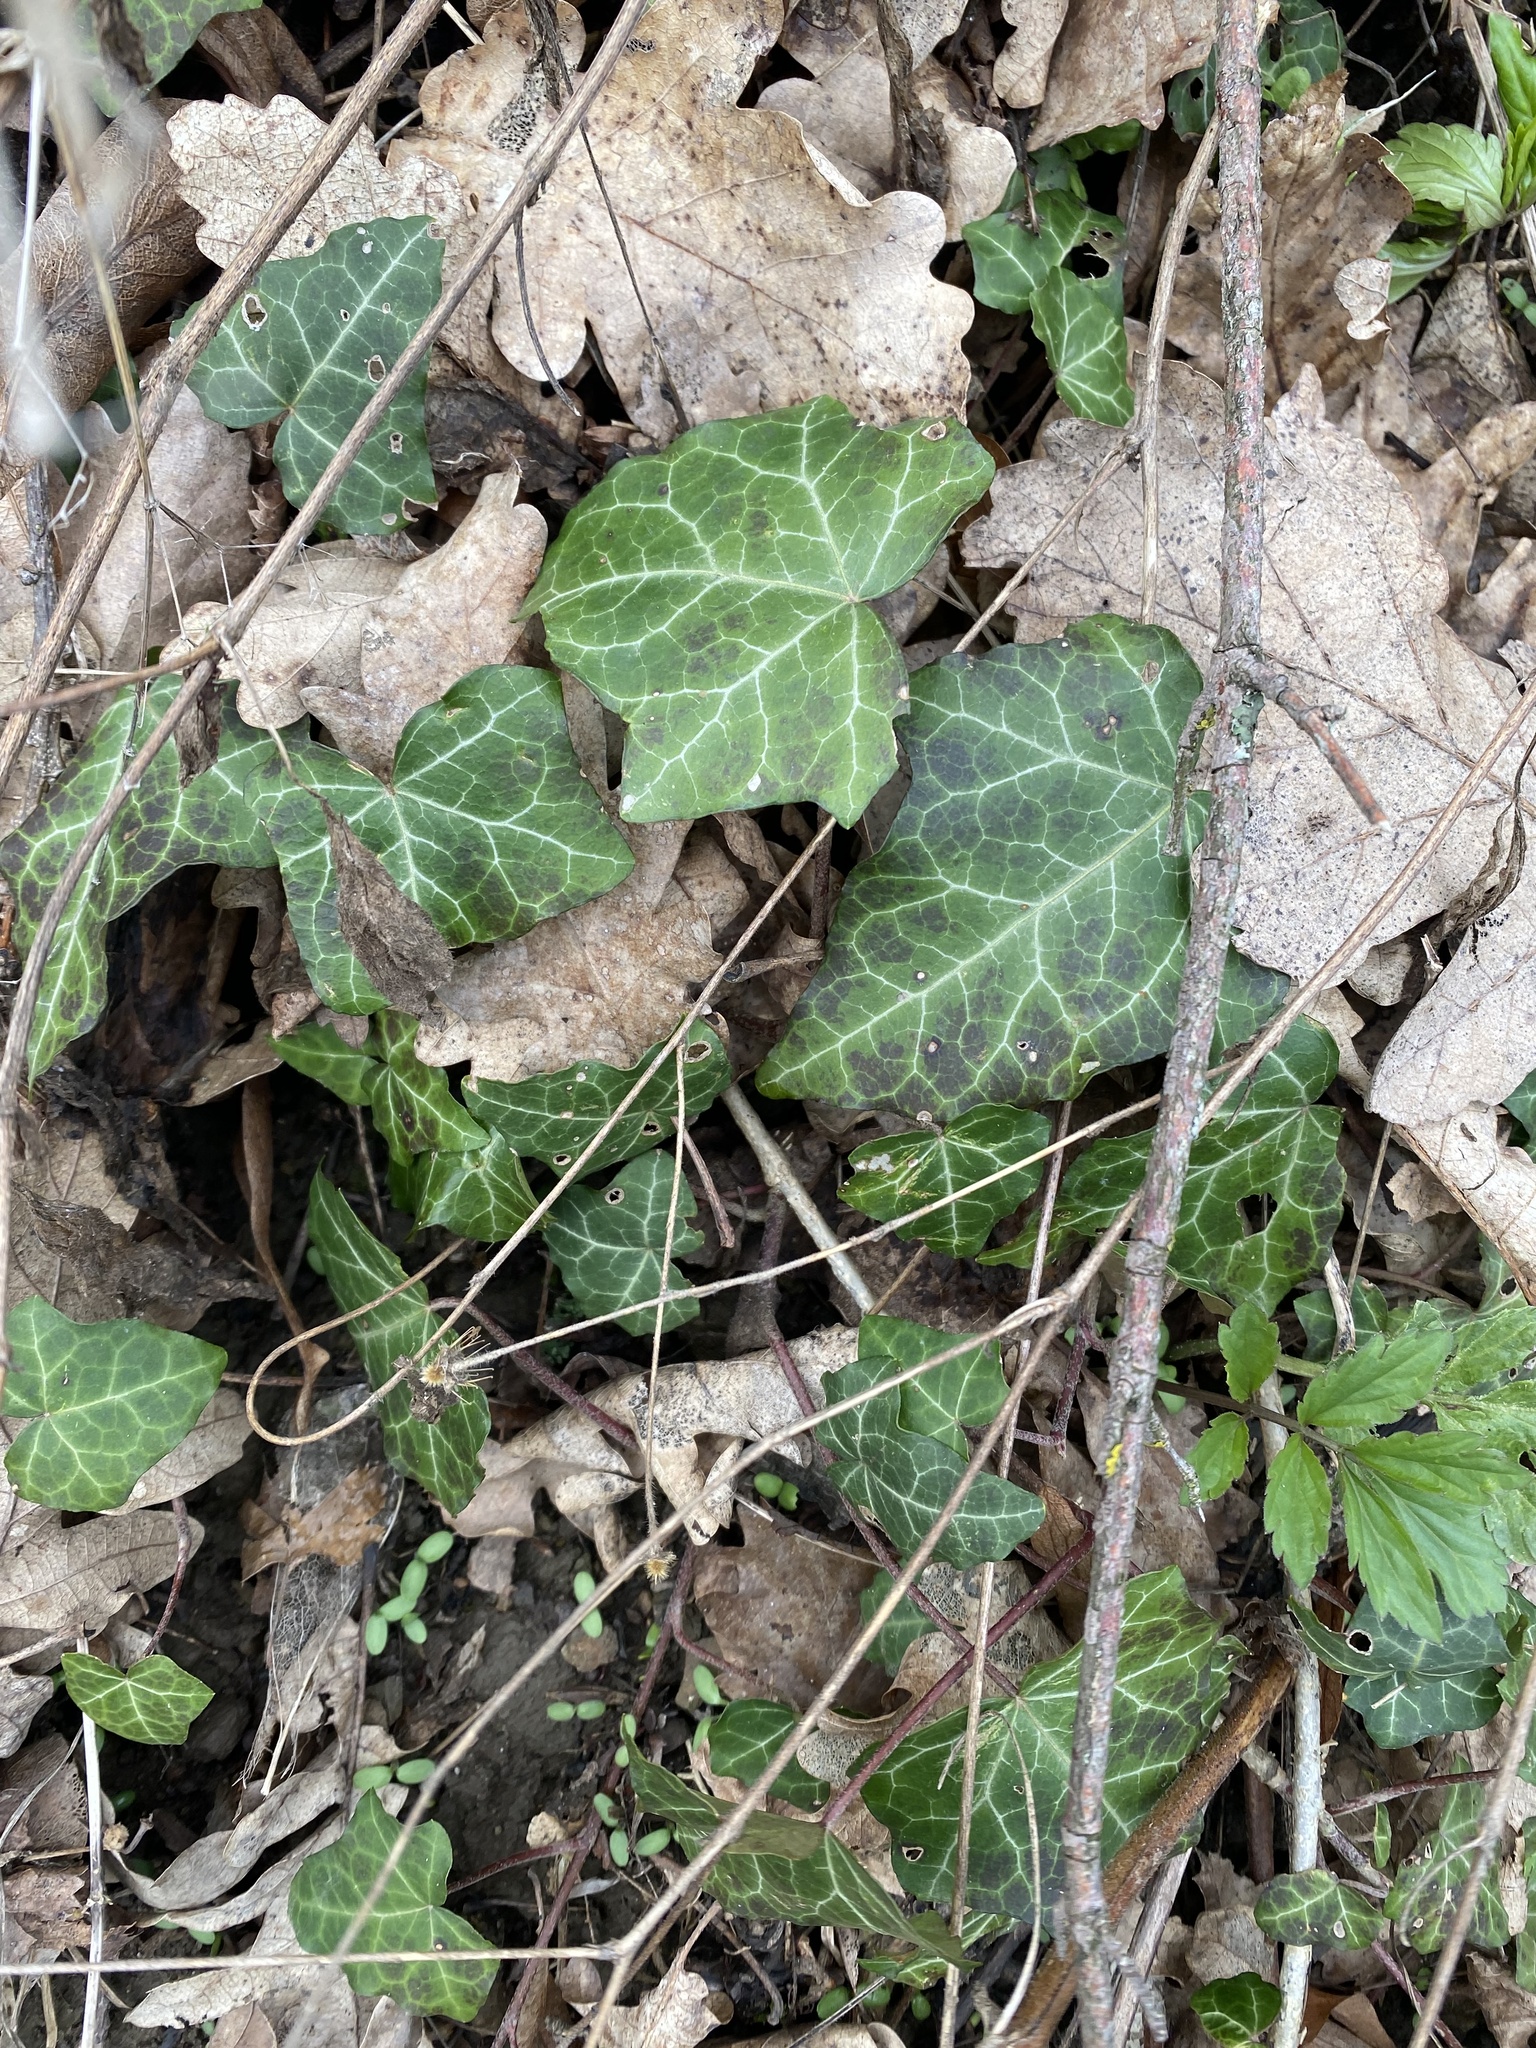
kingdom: Plantae
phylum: Tracheophyta
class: Magnoliopsida
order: Apiales
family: Araliaceae
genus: Hedera
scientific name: Hedera helix
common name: Ivy
